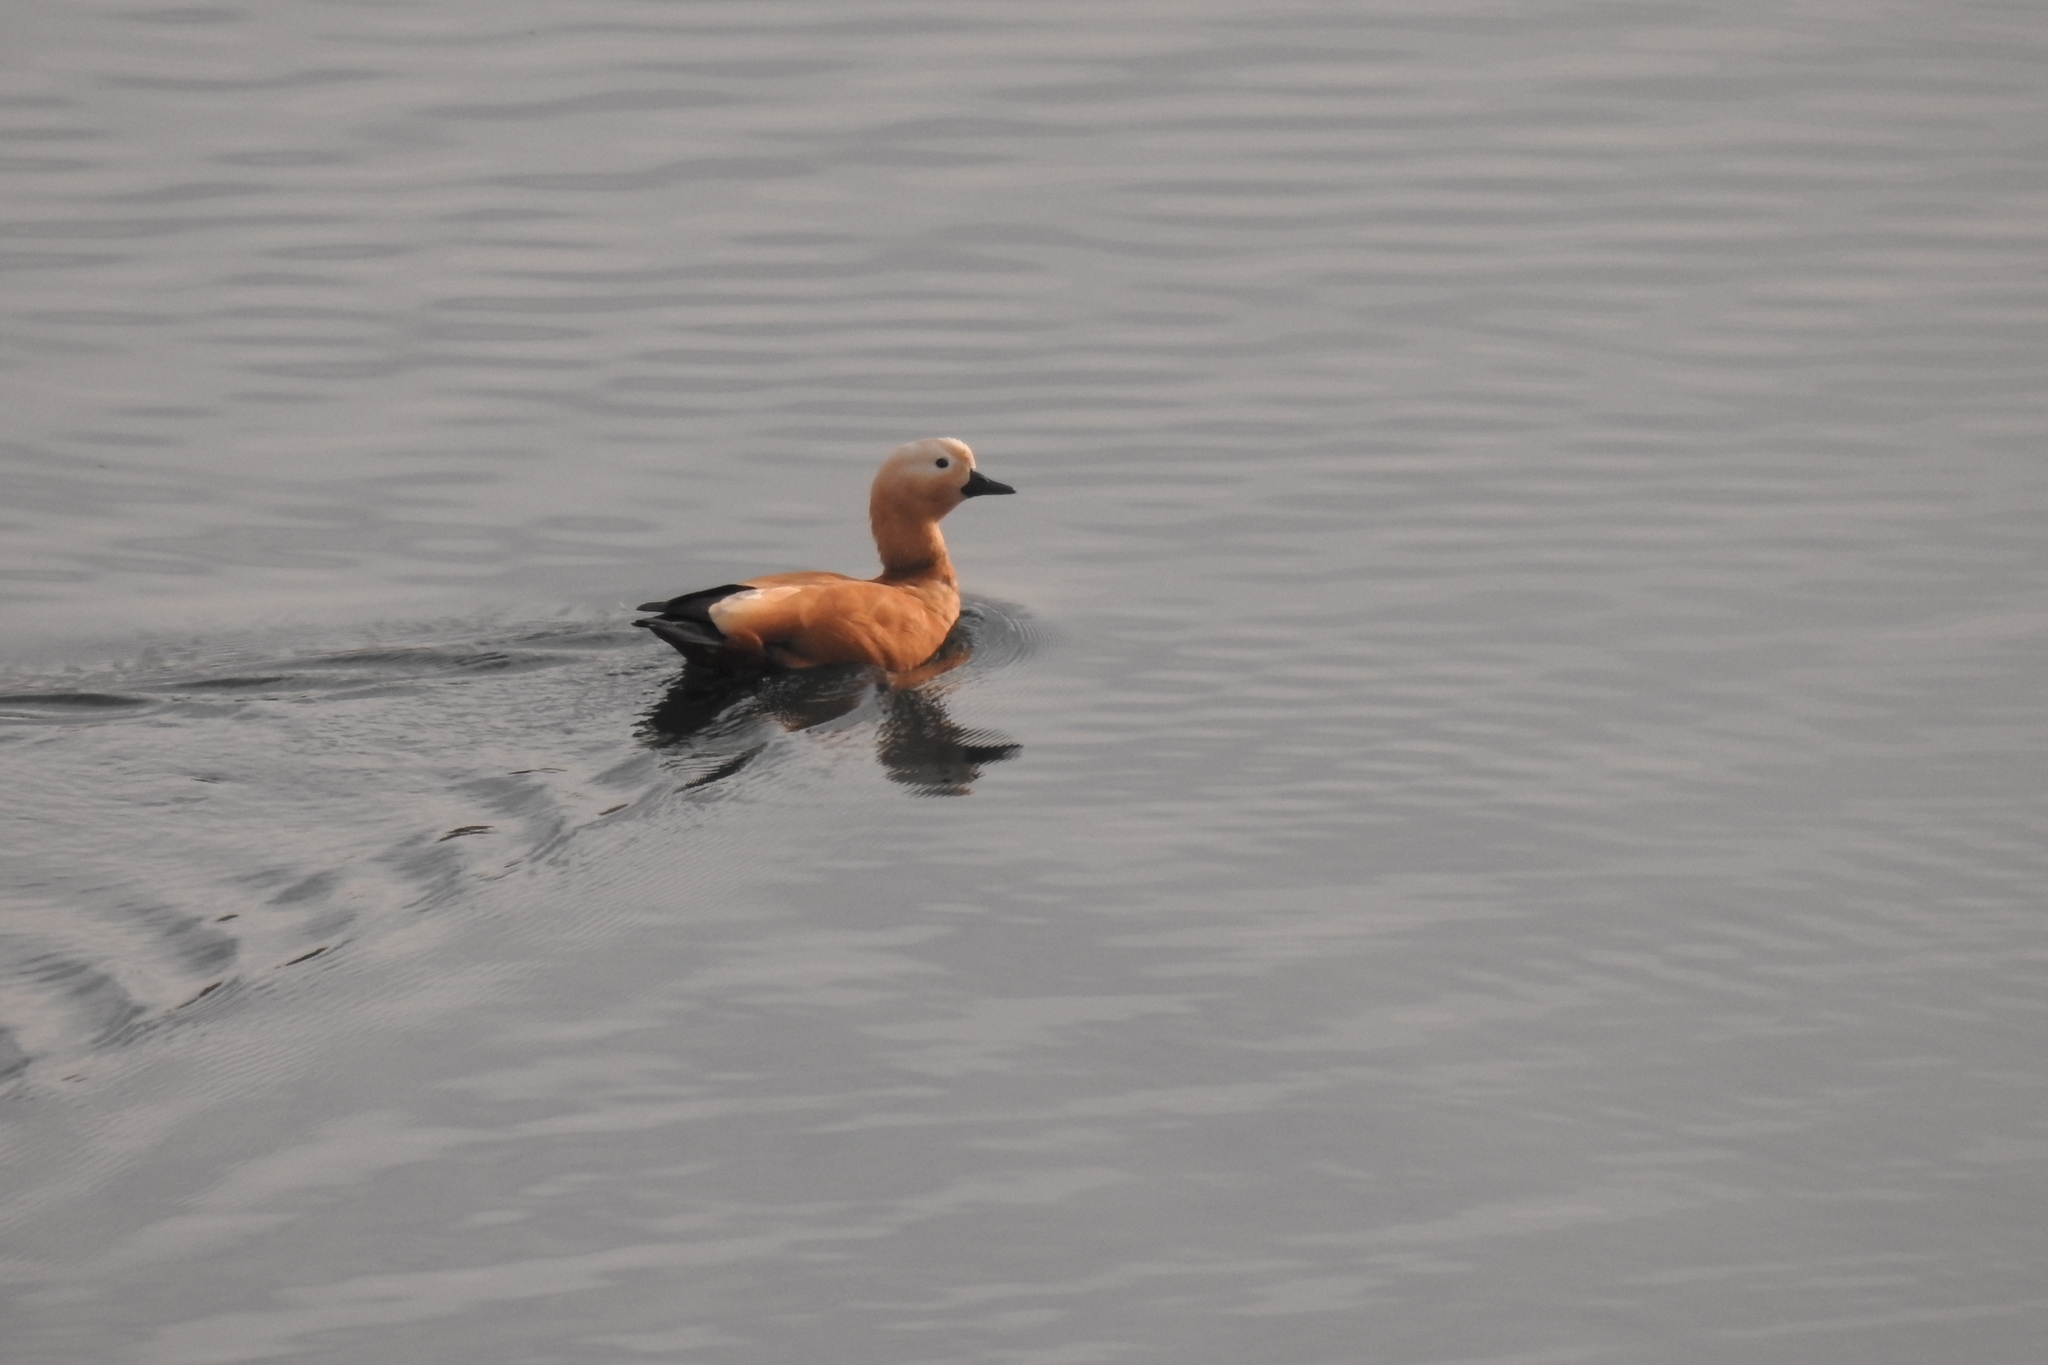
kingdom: Animalia
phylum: Chordata
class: Aves
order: Anseriformes
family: Anatidae
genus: Tadorna
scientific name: Tadorna ferruginea
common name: Ruddy shelduck
